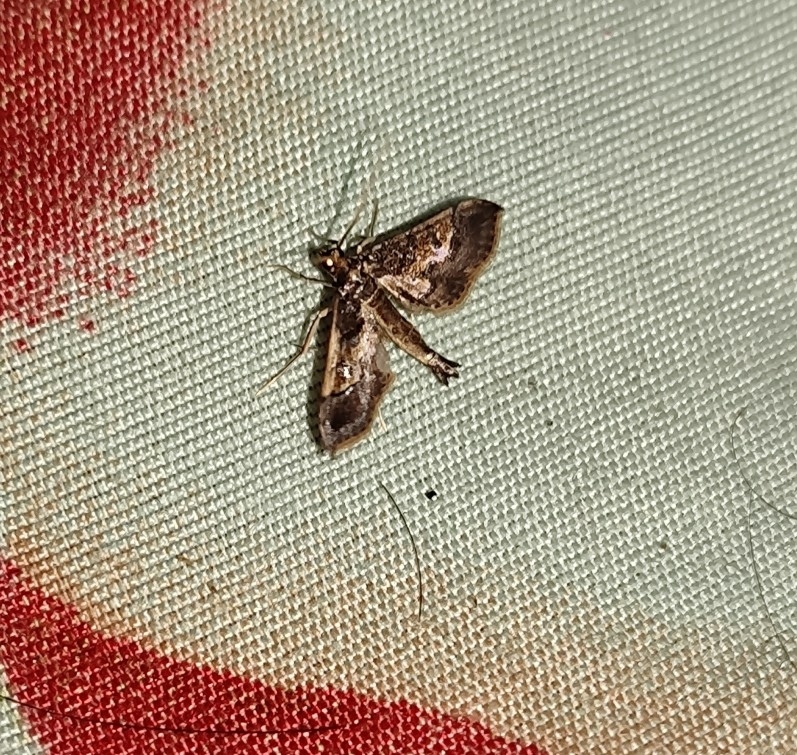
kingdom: Animalia
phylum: Arthropoda
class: Insecta
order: Lepidoptera
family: Crambidae
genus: Hydriris
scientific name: Hydriris ornatalis
